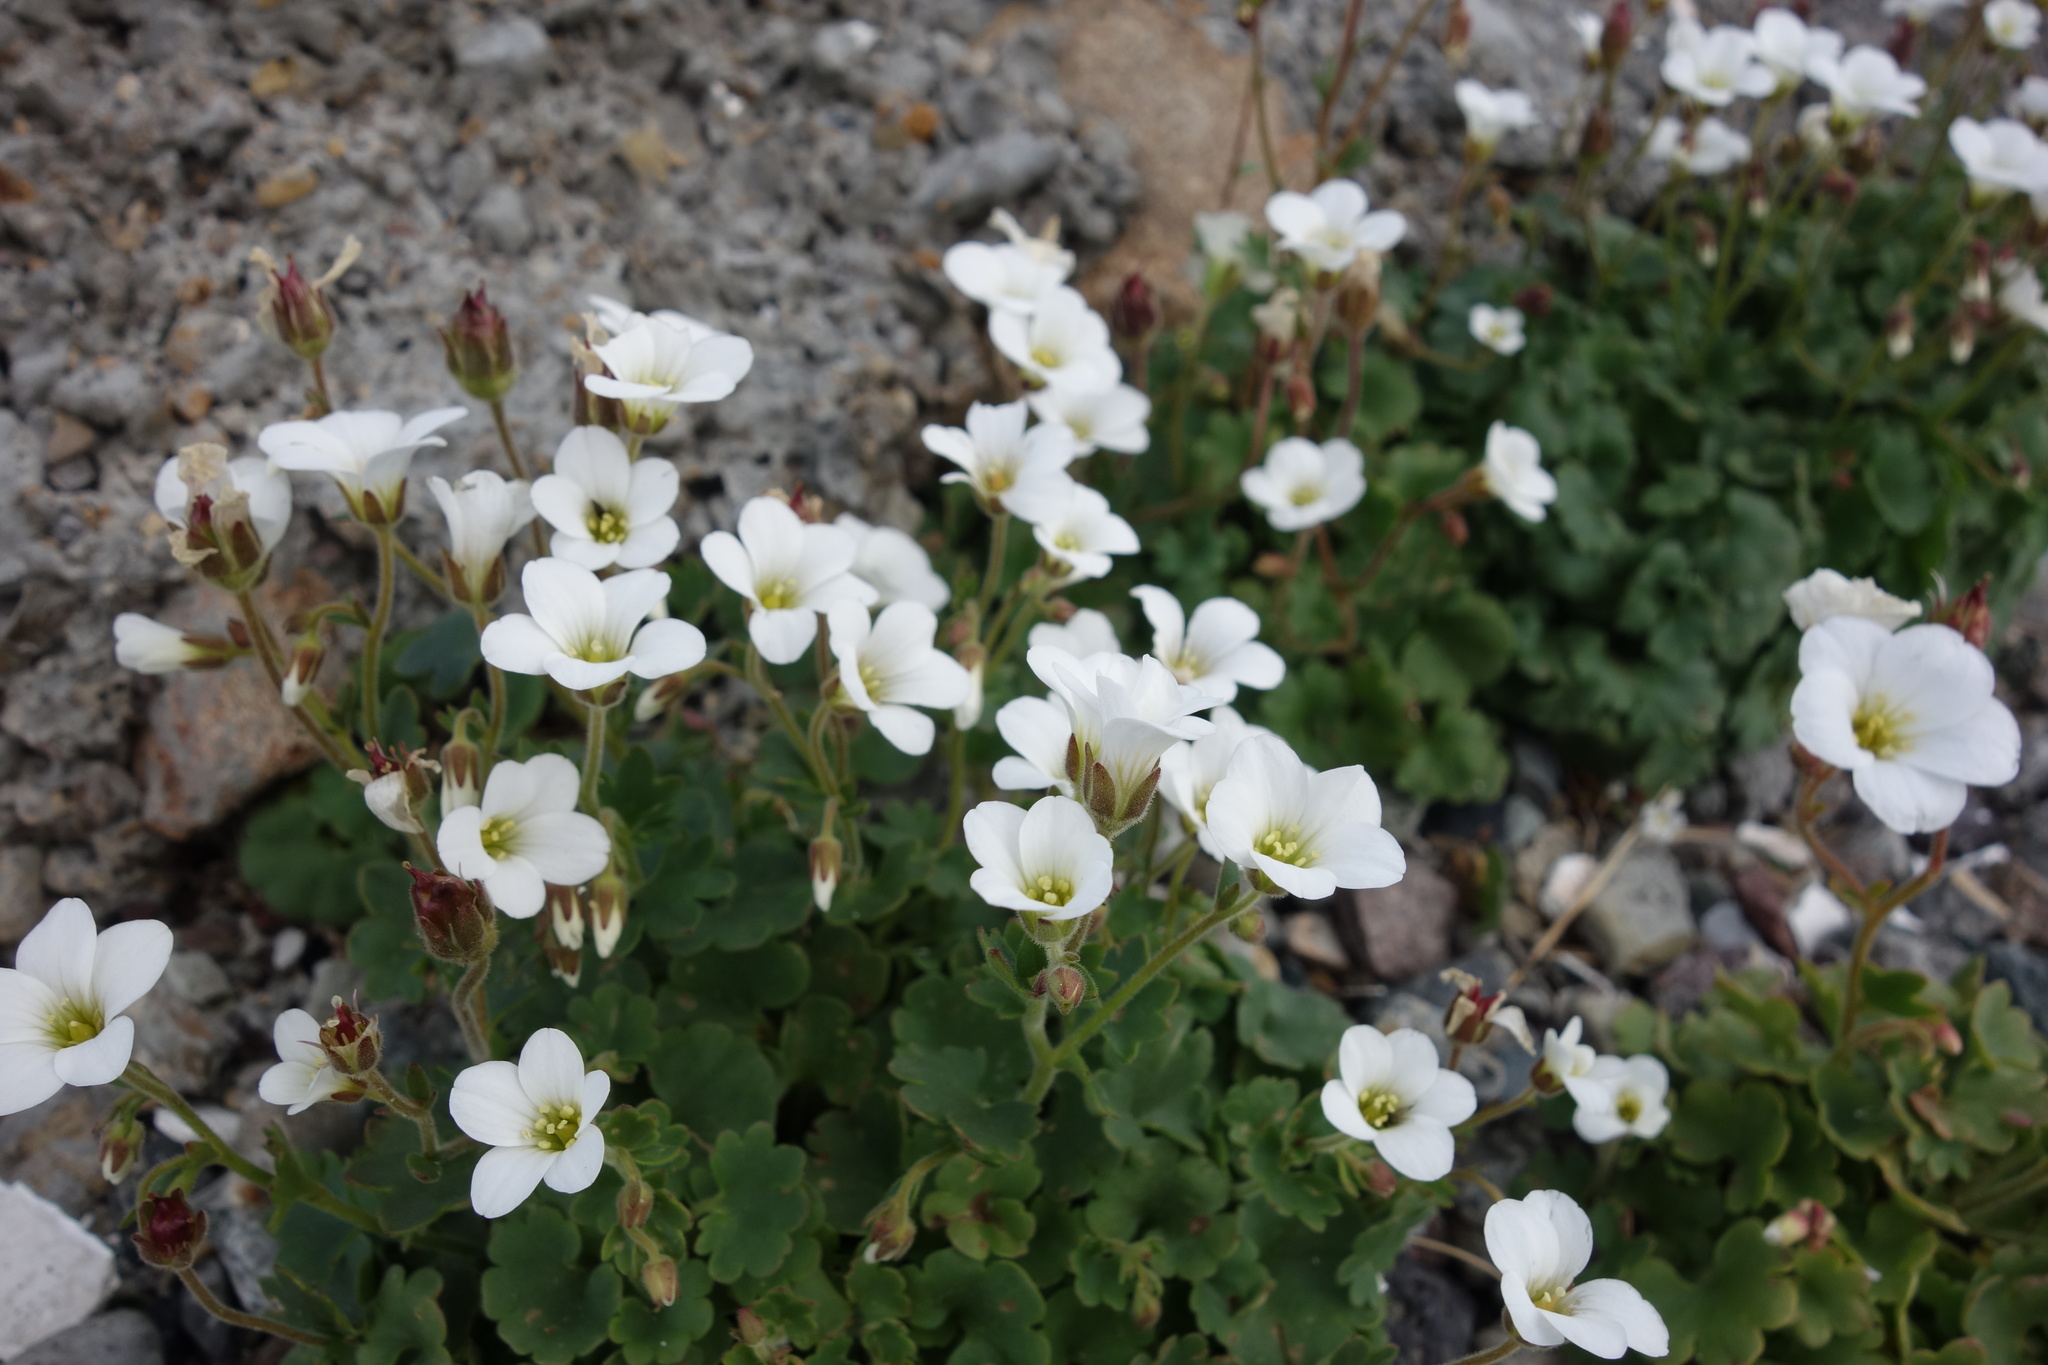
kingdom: Plantae
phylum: Tracheophyta
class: Magnoliopsida
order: Saxifragales
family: Saxifragaceae
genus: Saxifraga
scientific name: Saxifraga sibirica
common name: Siberian saxifrage
